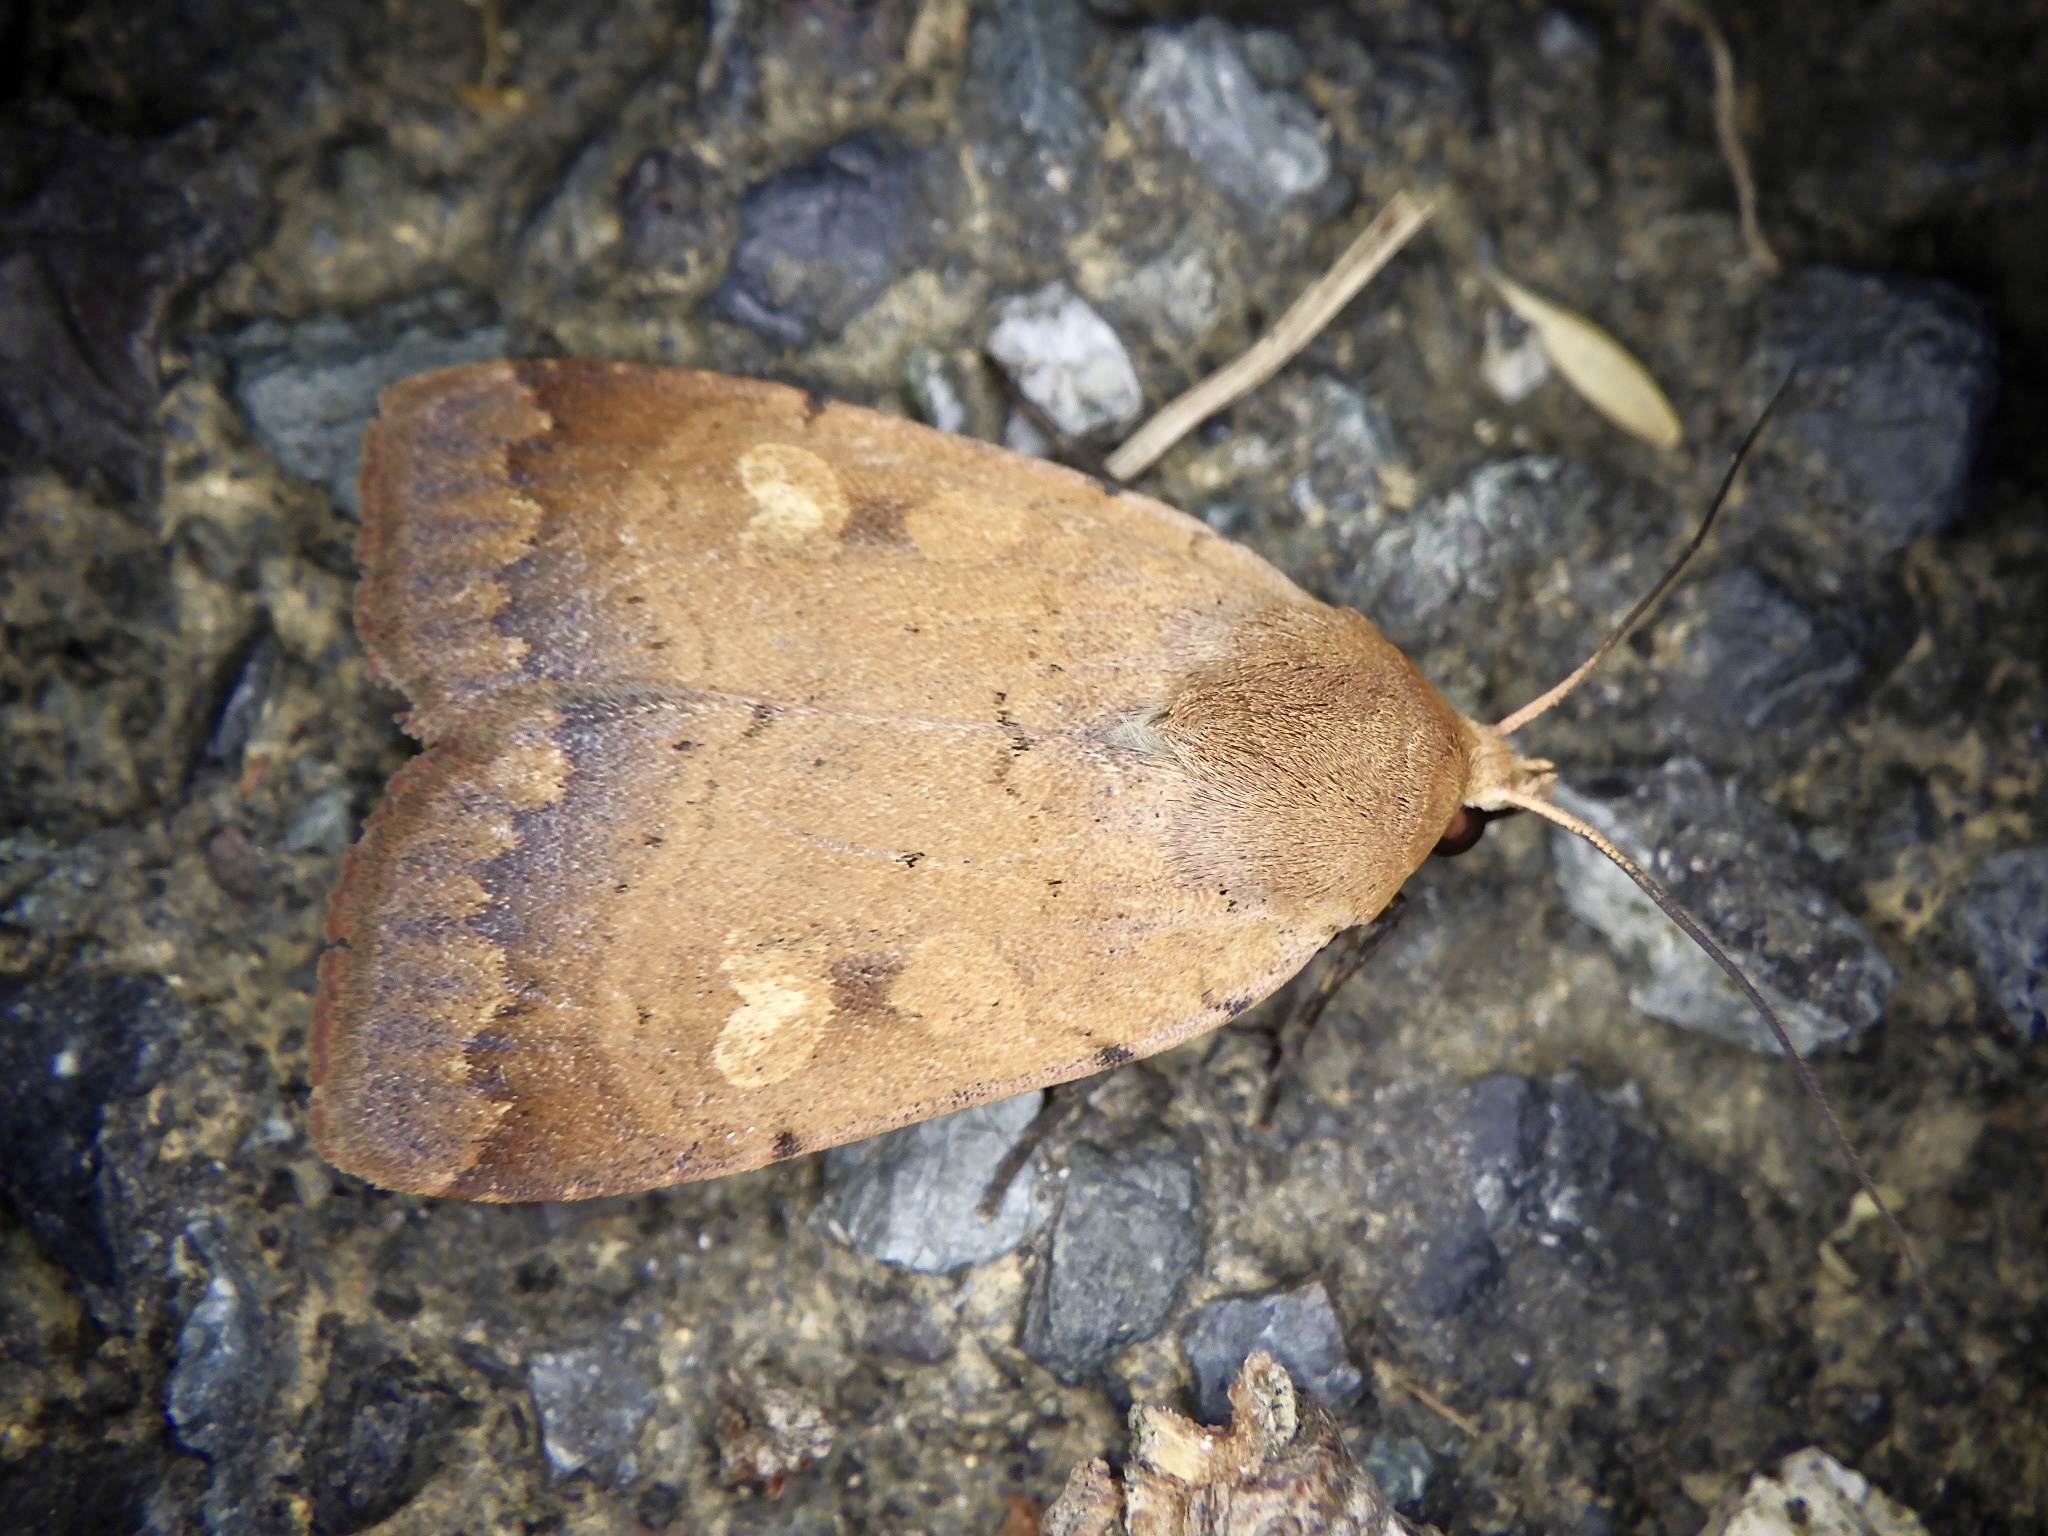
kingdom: Animalia
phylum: Arthropoda
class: Insecta
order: Lepidoptera
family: Noctuidae
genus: Sineugraphe
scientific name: Sineugraphe exusta
